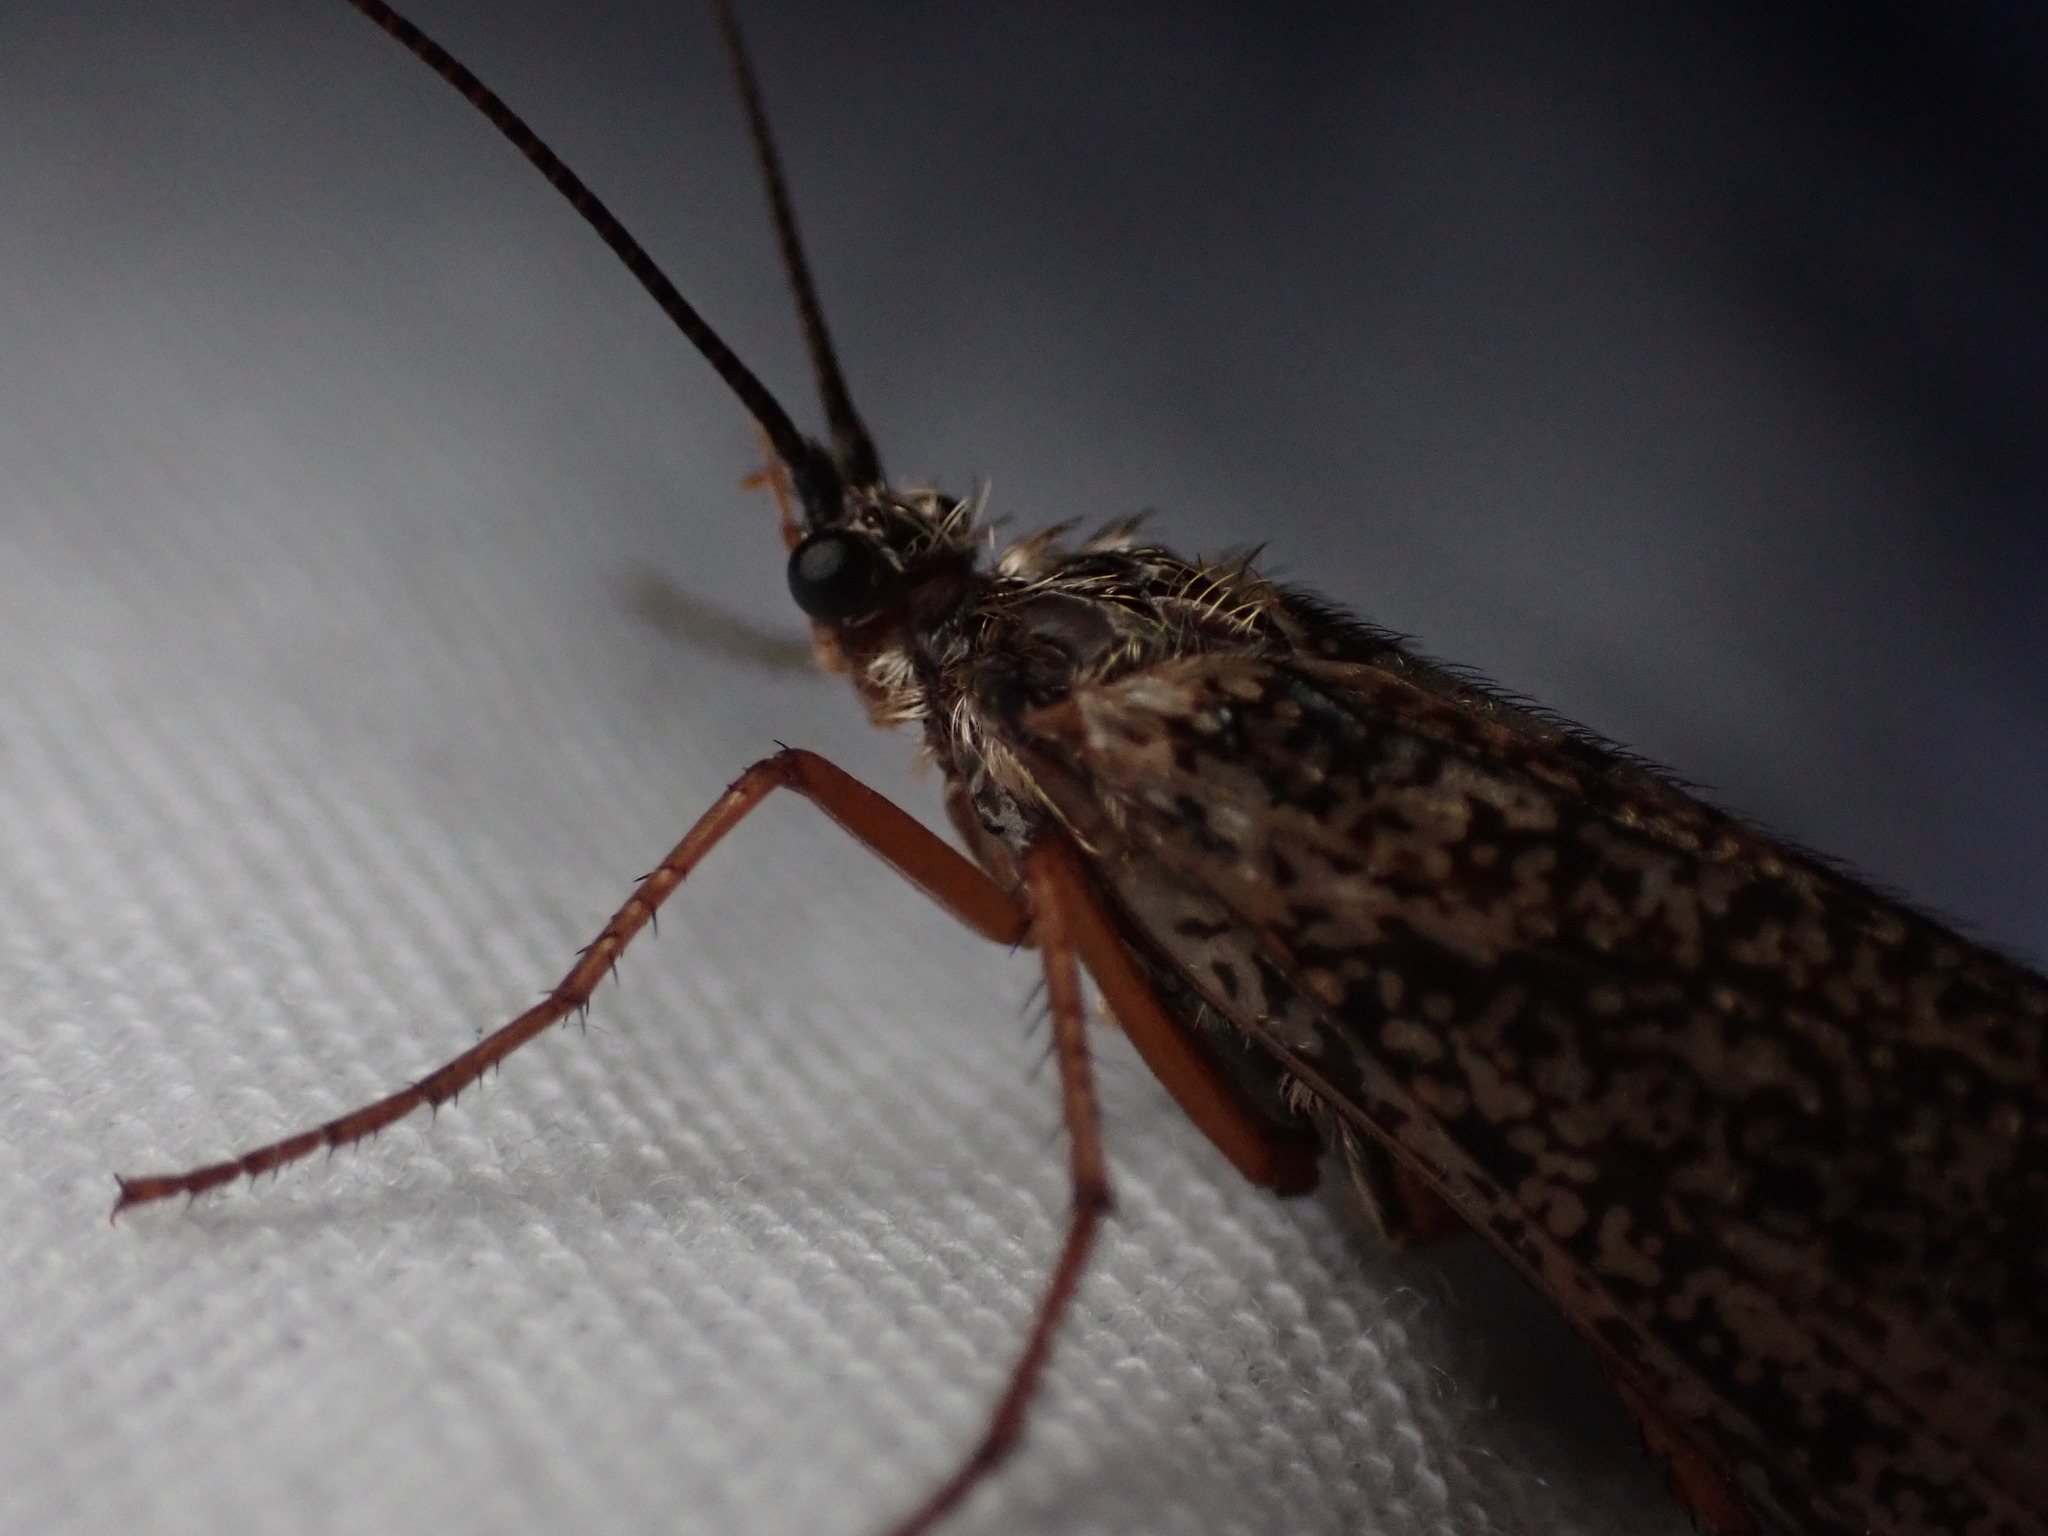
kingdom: Animalia
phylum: Arthropoda
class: Insecta
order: Trichoptera
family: Limnephilidae
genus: Clistoronia
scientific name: Clistoronia magnifica
